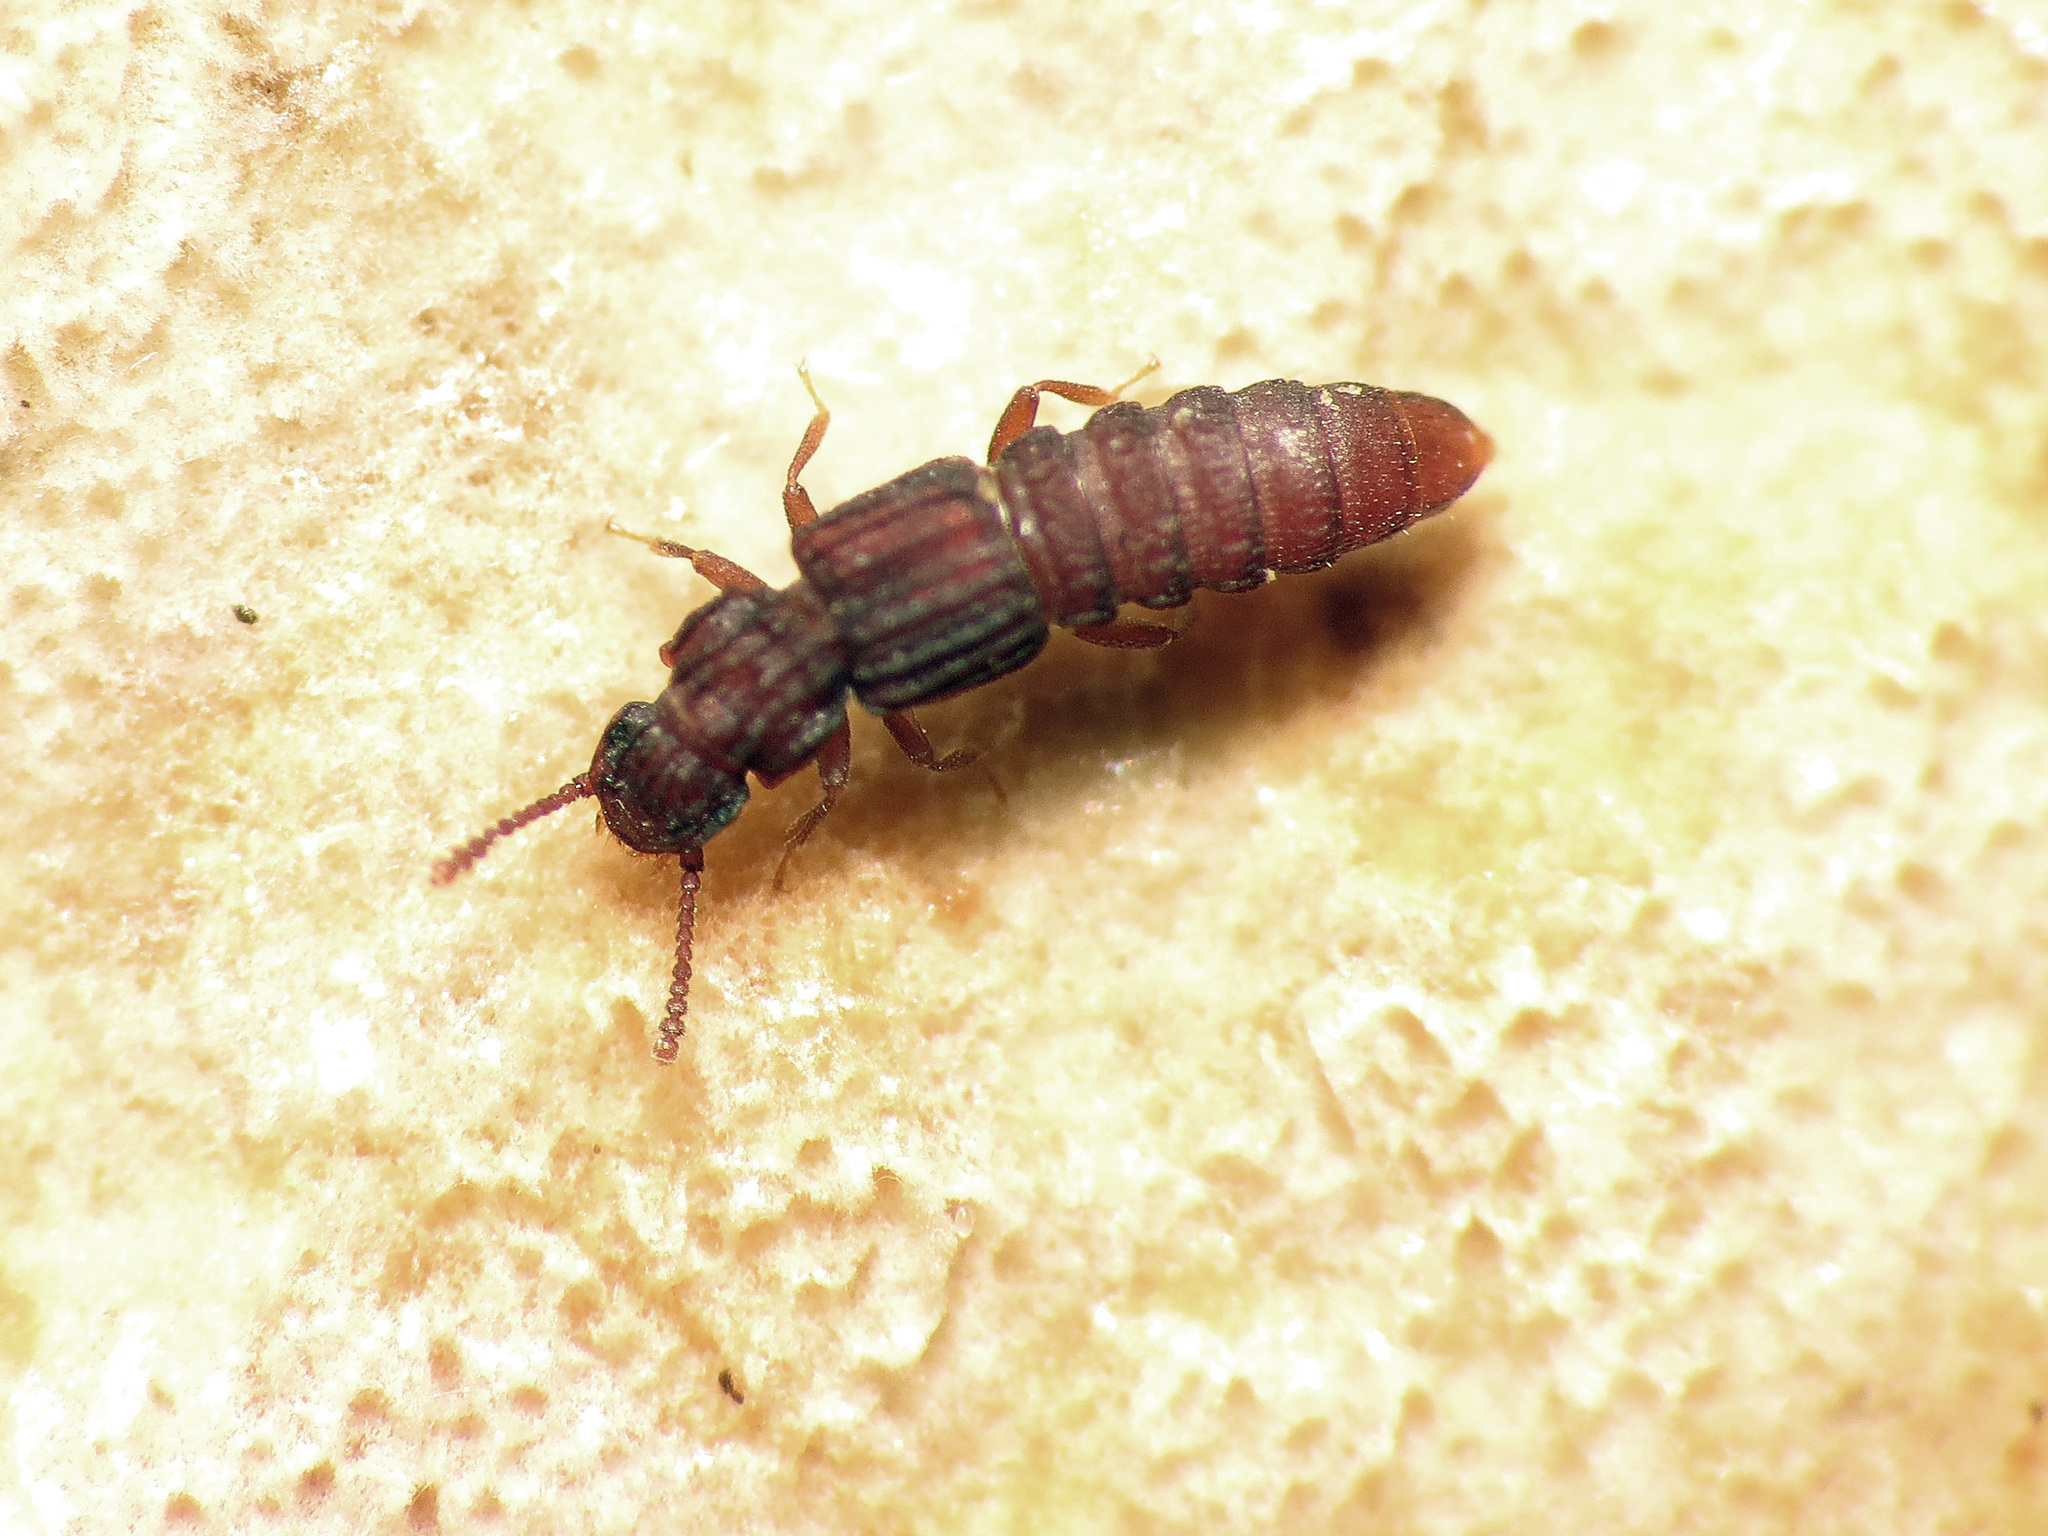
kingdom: Animalia
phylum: Arthropoda
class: Insecta
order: Coleoptera
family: Staphylinidae
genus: Thoracophorus
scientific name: Thoracophorus costalis
